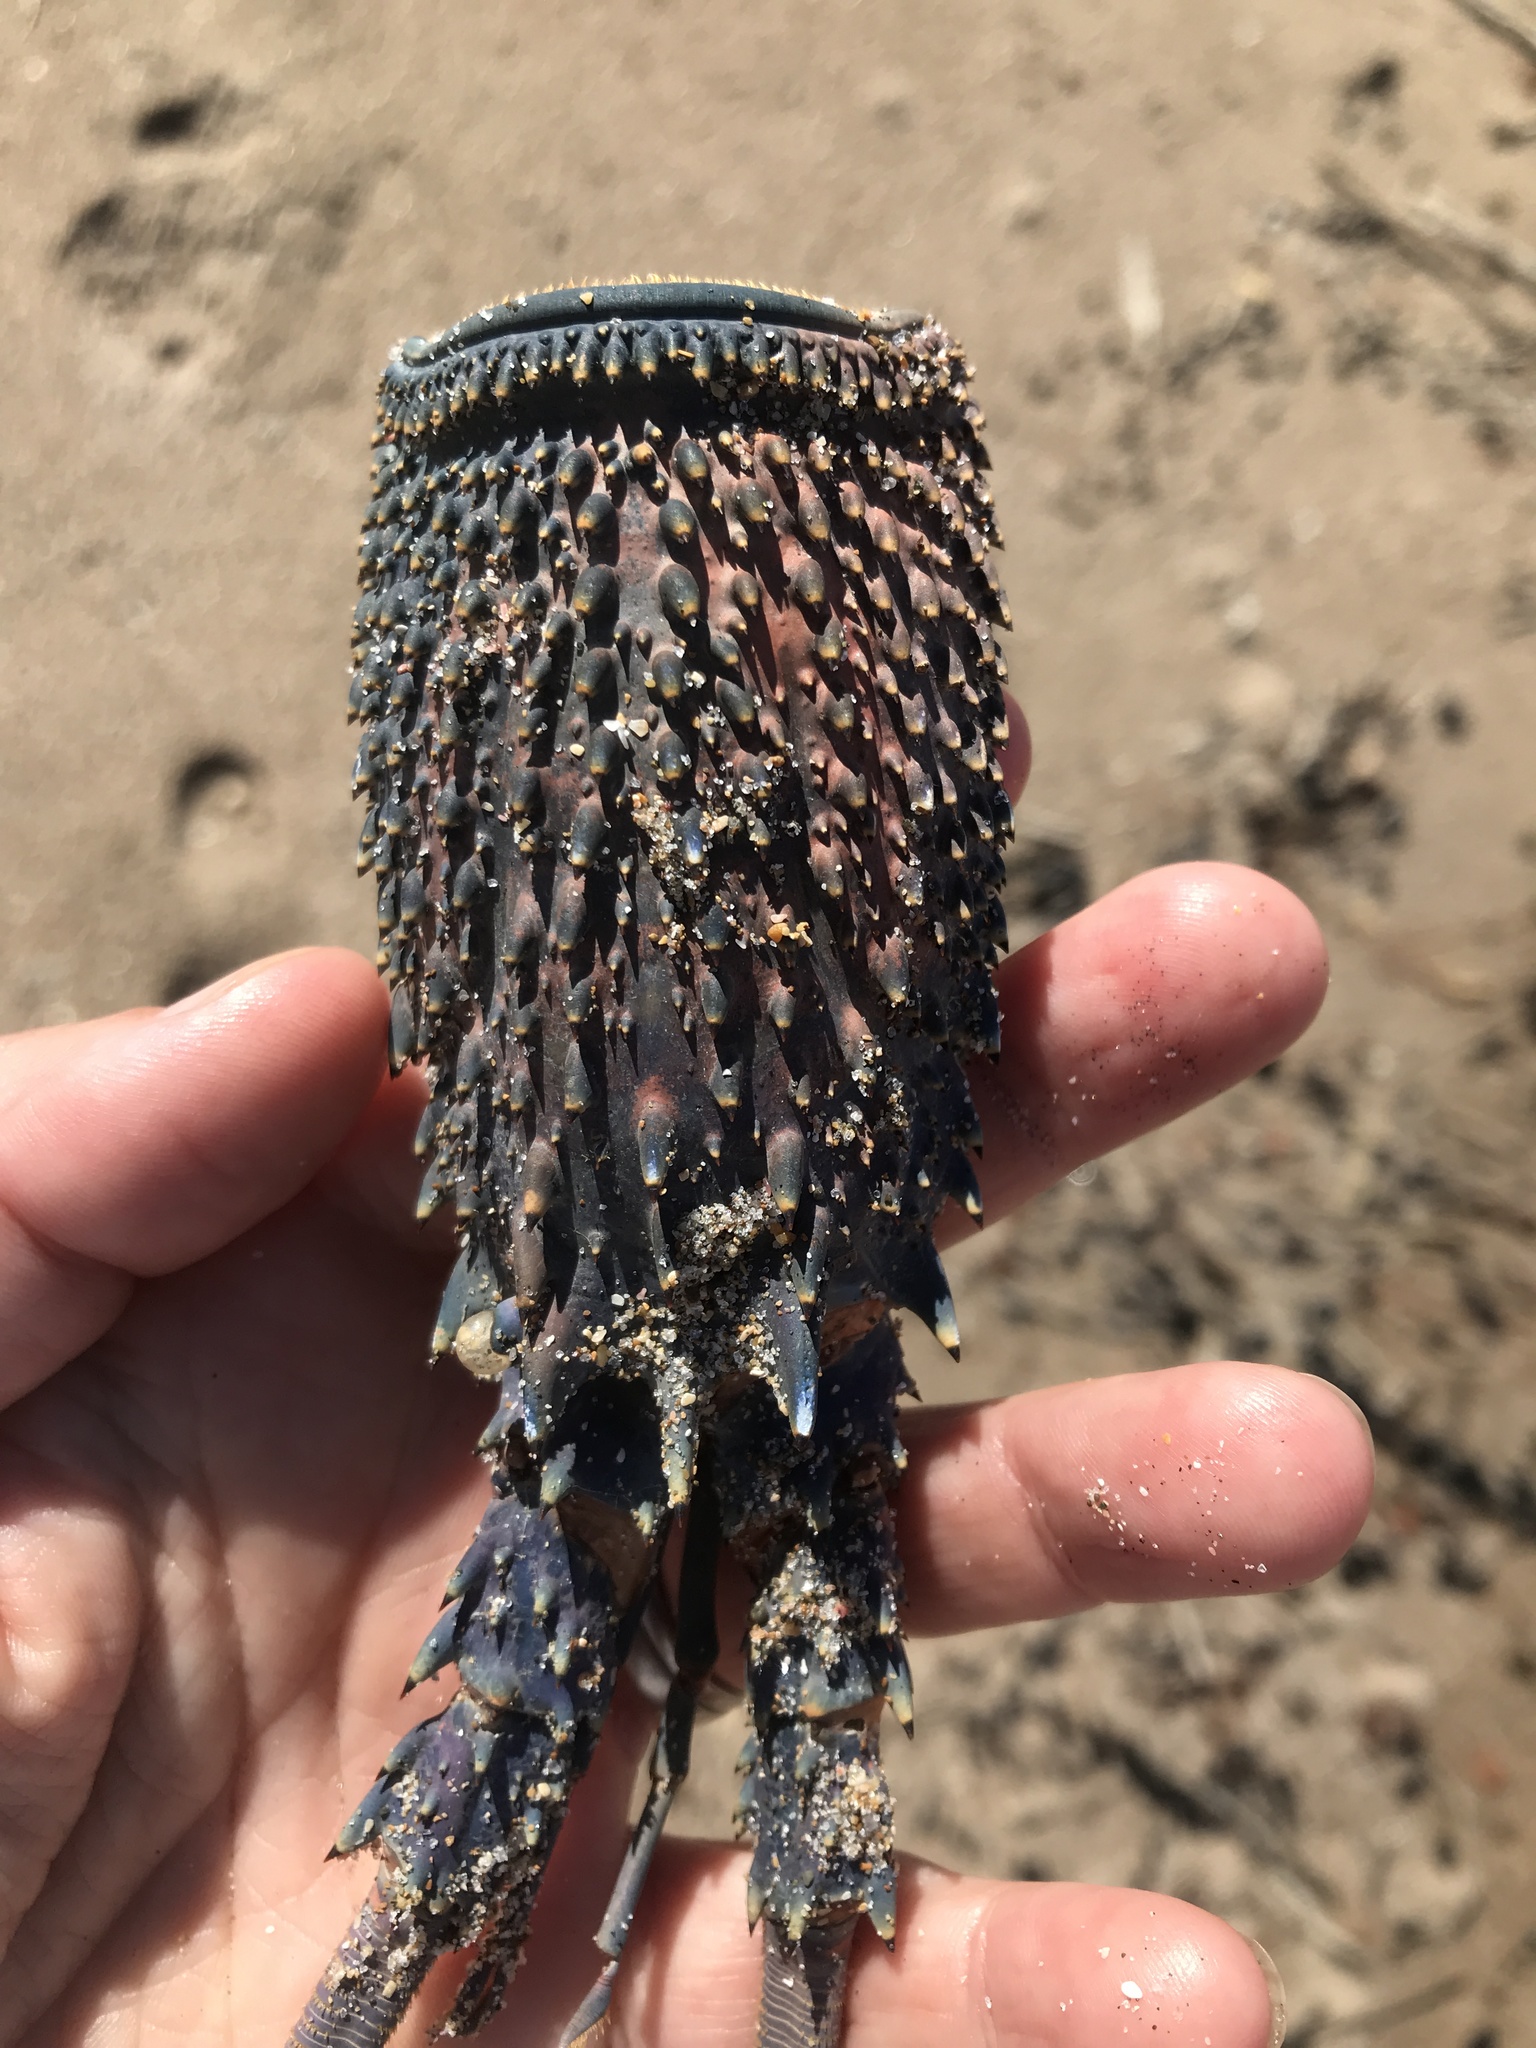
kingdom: Animalia
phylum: Arthropoda
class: Malacostraca
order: Decapoda
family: Palinuridae
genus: Sagmariasus
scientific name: Sagmariasus verreauxi
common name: Green rock lobster
